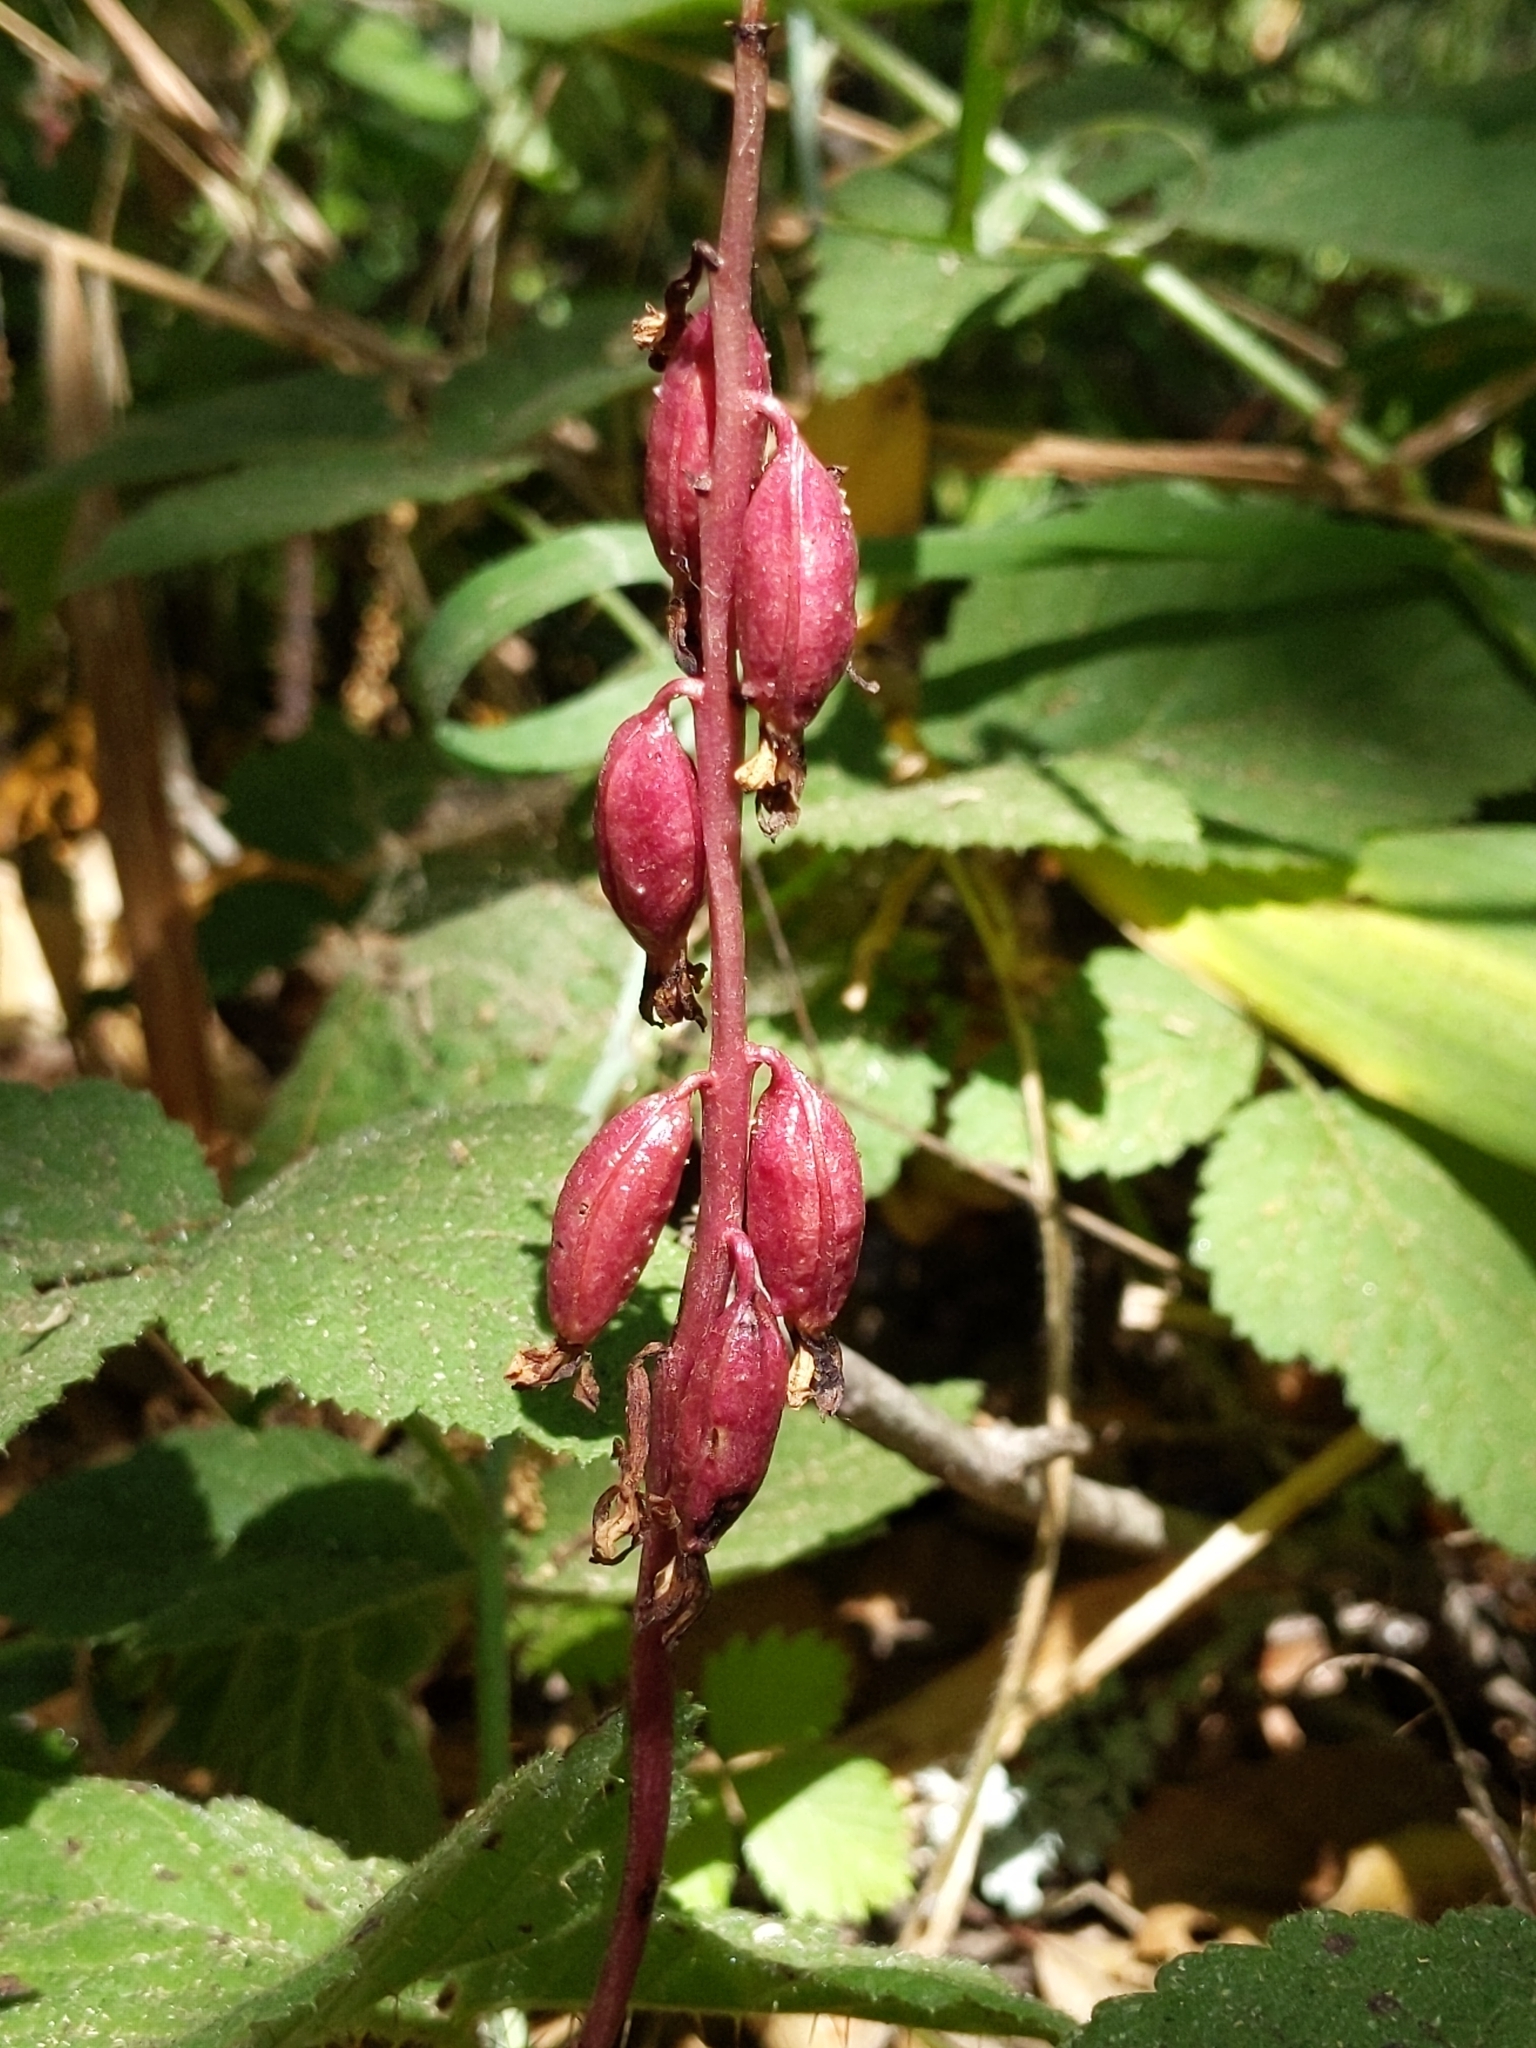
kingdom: Plantae
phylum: Tracheophyta
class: Liliopsida
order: Asparagales
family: Orchidaceae
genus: Corallorhiza
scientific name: Corallorhiza maculata
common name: Spotted coralroot
